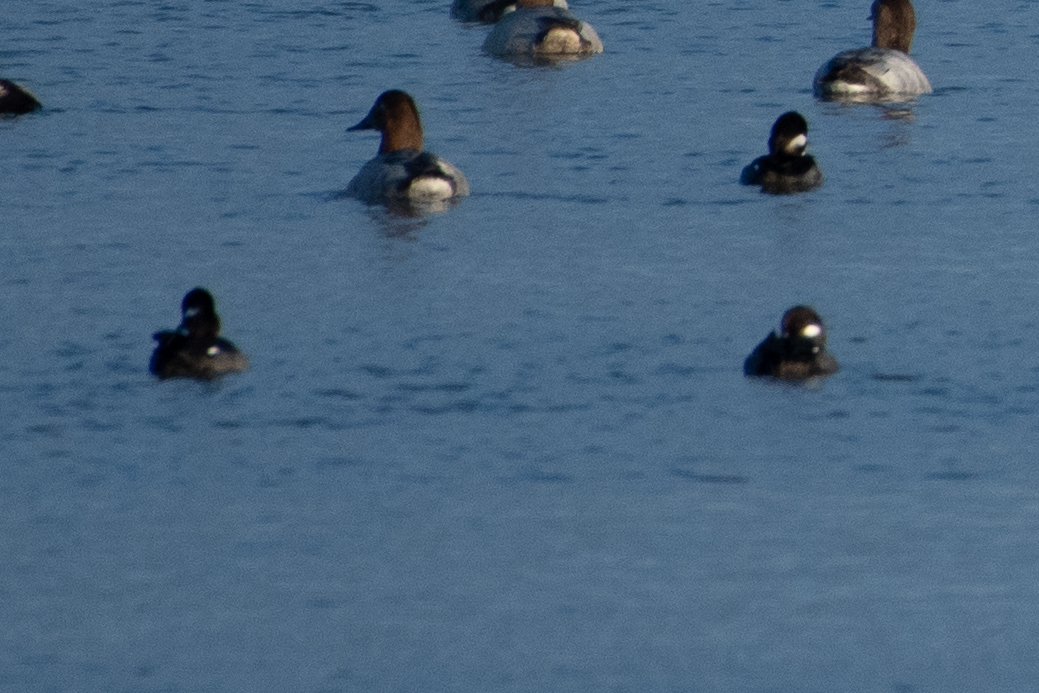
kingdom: Animalia
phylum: Chordata
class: Aves
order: Anseriformes
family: Anatidae
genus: Aythya
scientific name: Aythya valisineria
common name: Canvasback
